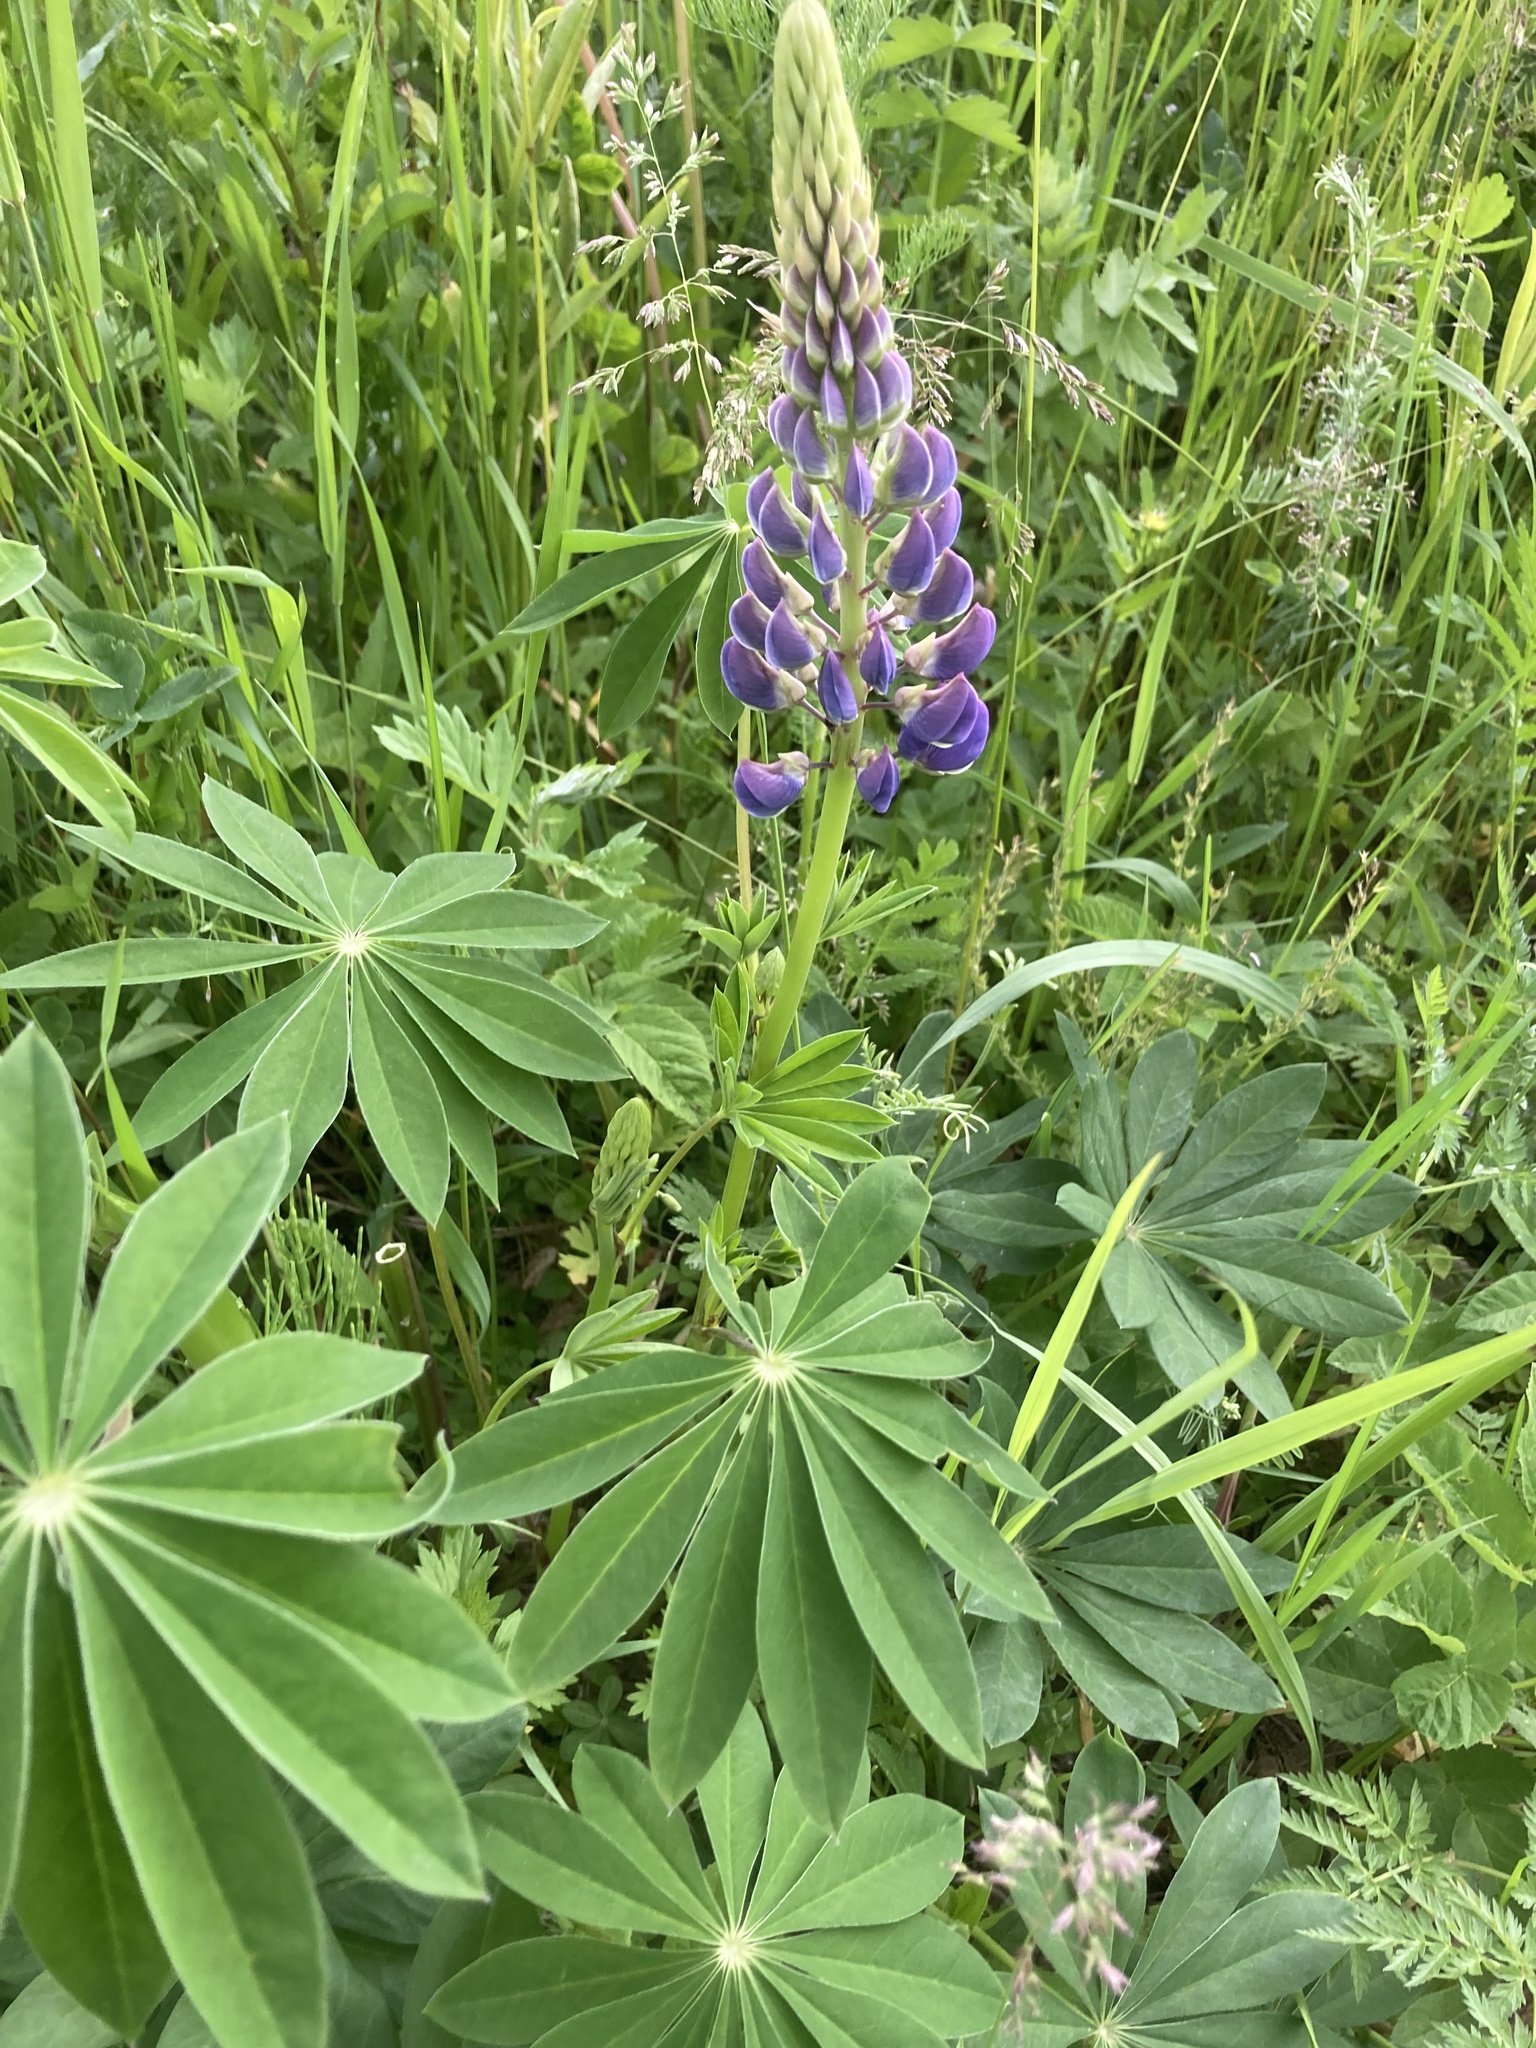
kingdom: Plantae
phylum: Tracheophyta
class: Magnoliopsida
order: Fabales
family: Fabaceae
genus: Lupinus
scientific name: Lupinus polyphyllus
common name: Garden lupin
